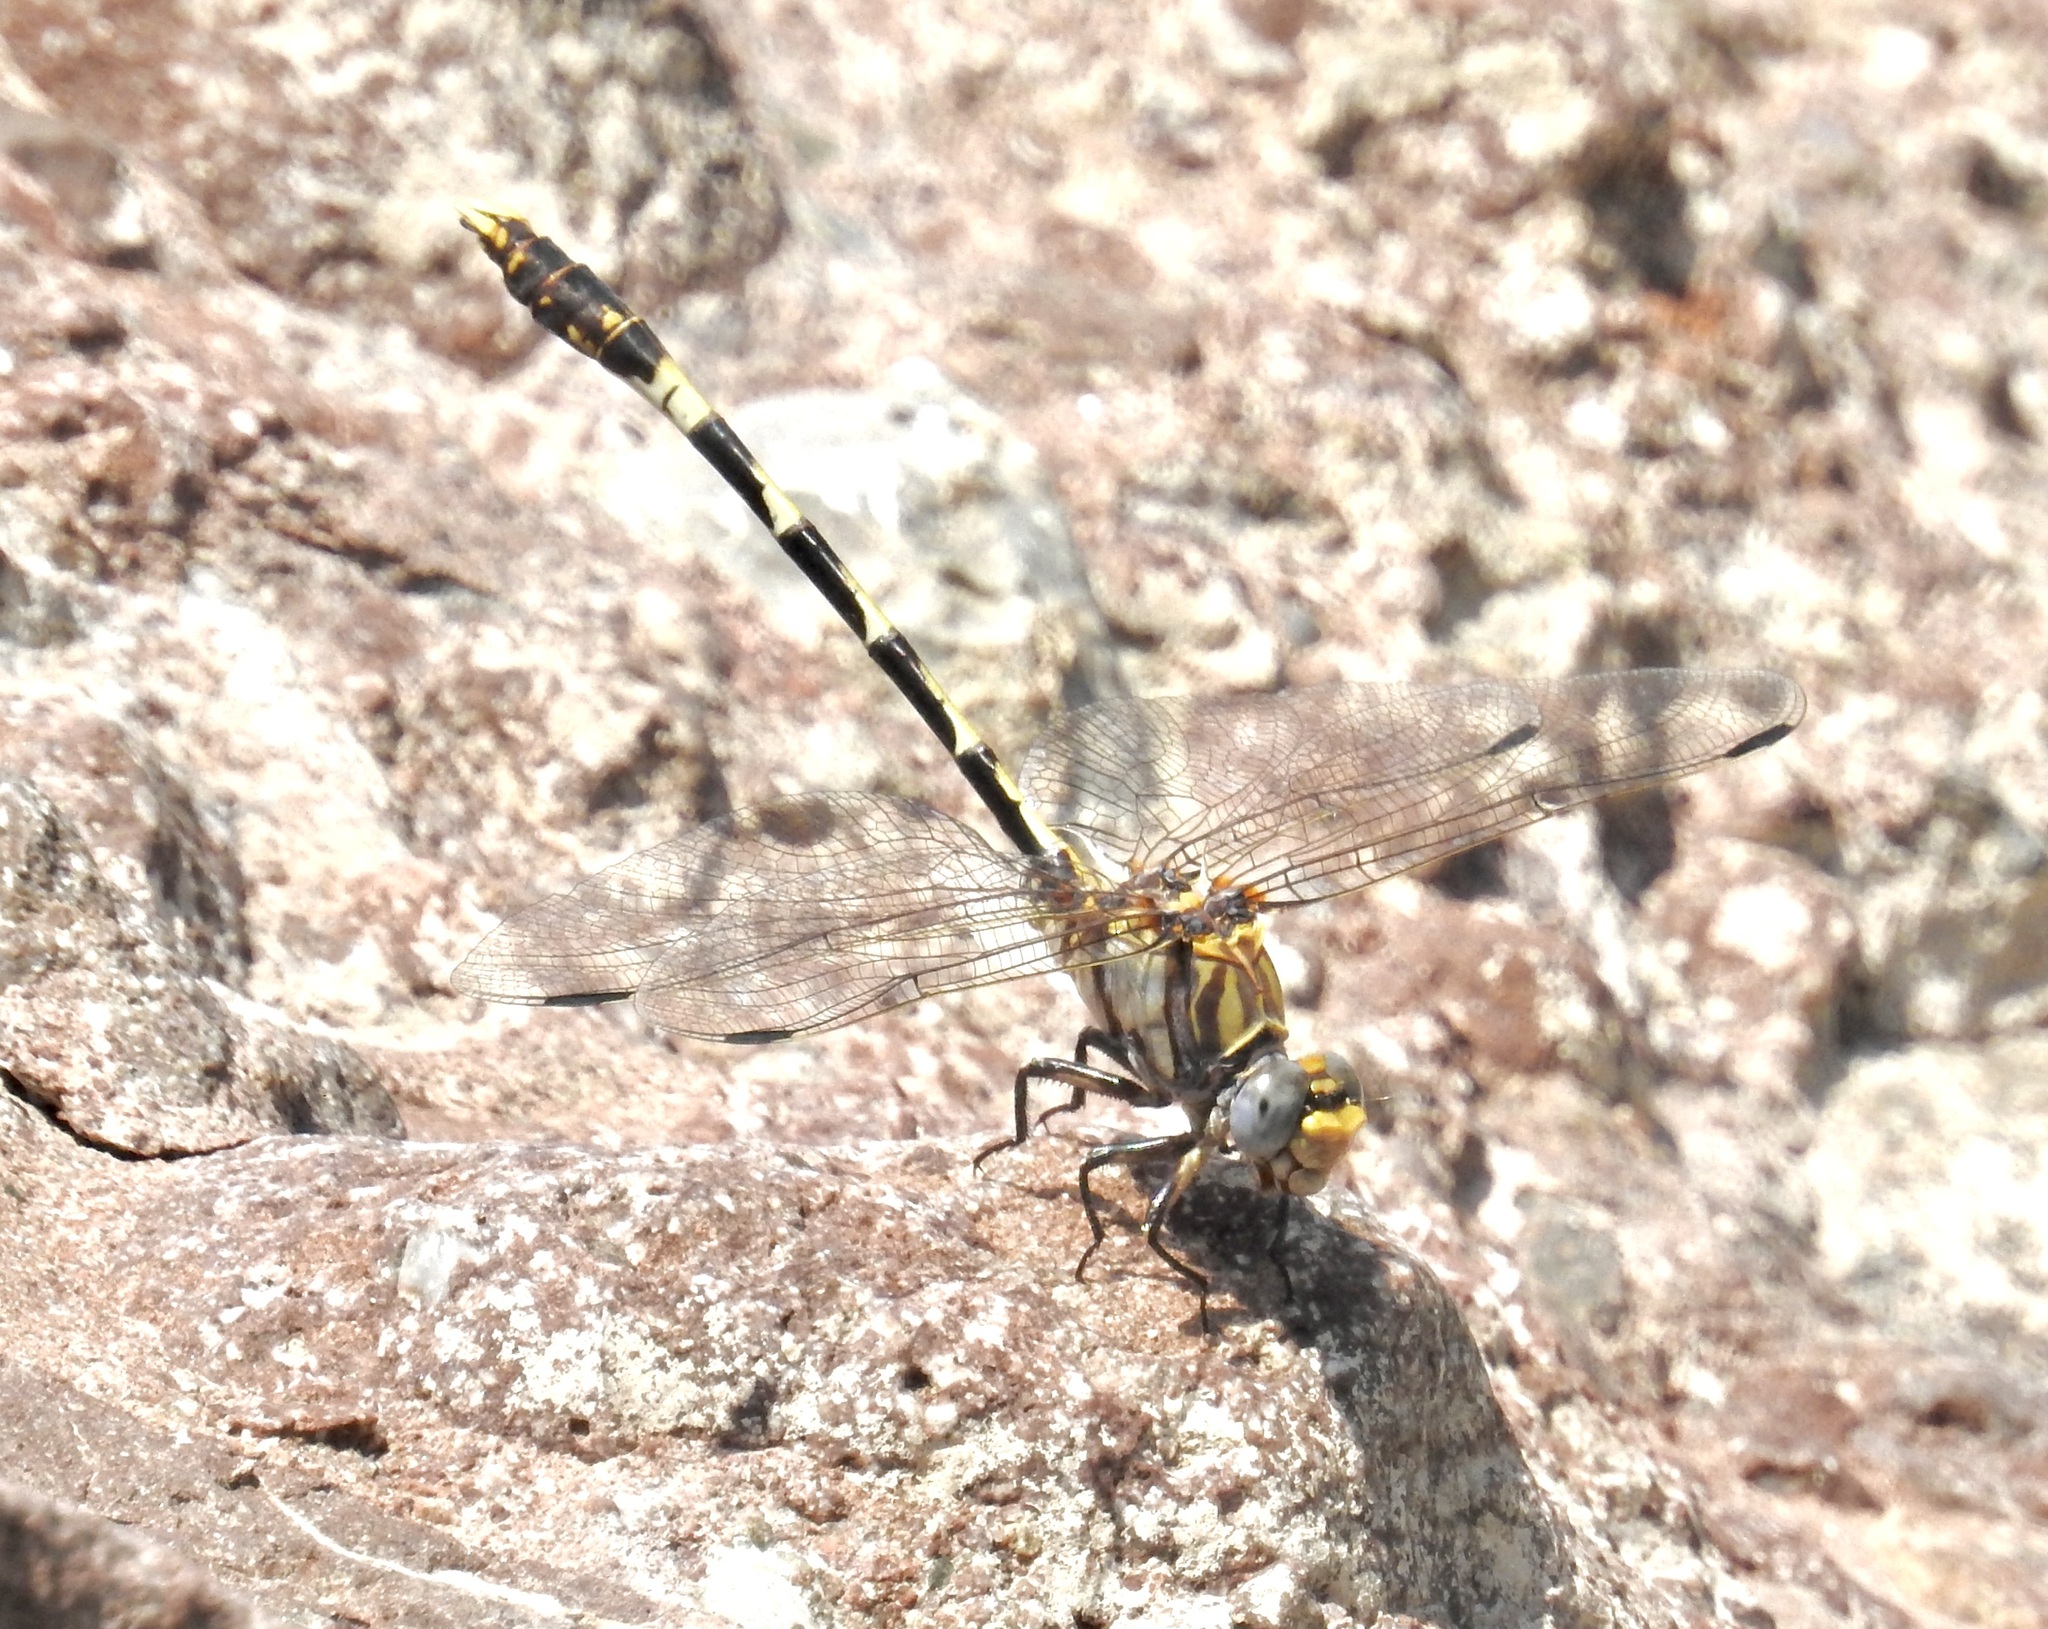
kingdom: Animalia
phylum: Arthropoda
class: Insecta
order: Odonata
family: Gomphidae
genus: Progomphus
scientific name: Progomphus borealis
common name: Gray sanddragon
